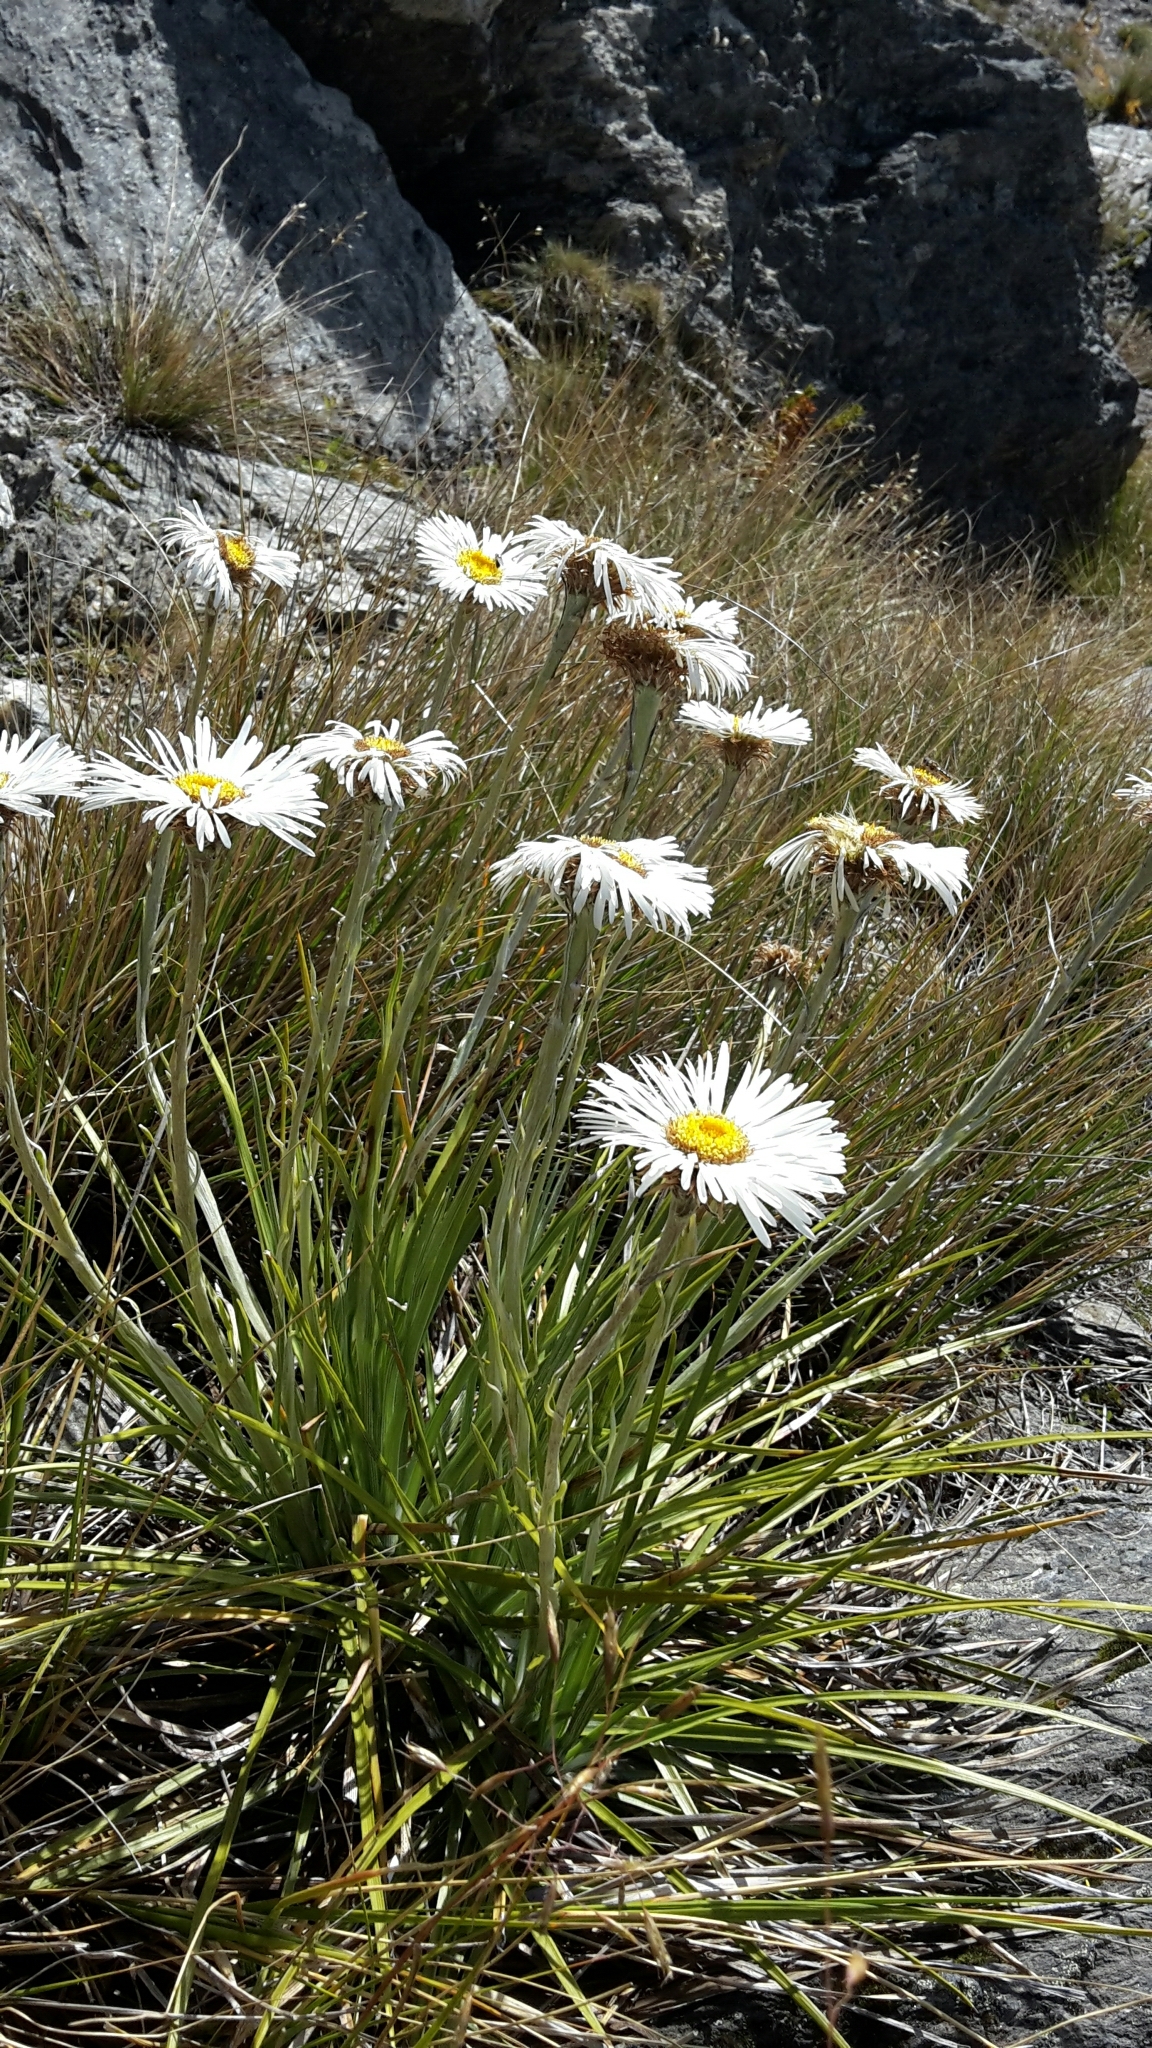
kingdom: Plantae
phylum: Tracheophyta
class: Magnoliopsida
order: Asterales
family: Asteraceae
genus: Celmisia
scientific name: Celmisia lyallii
